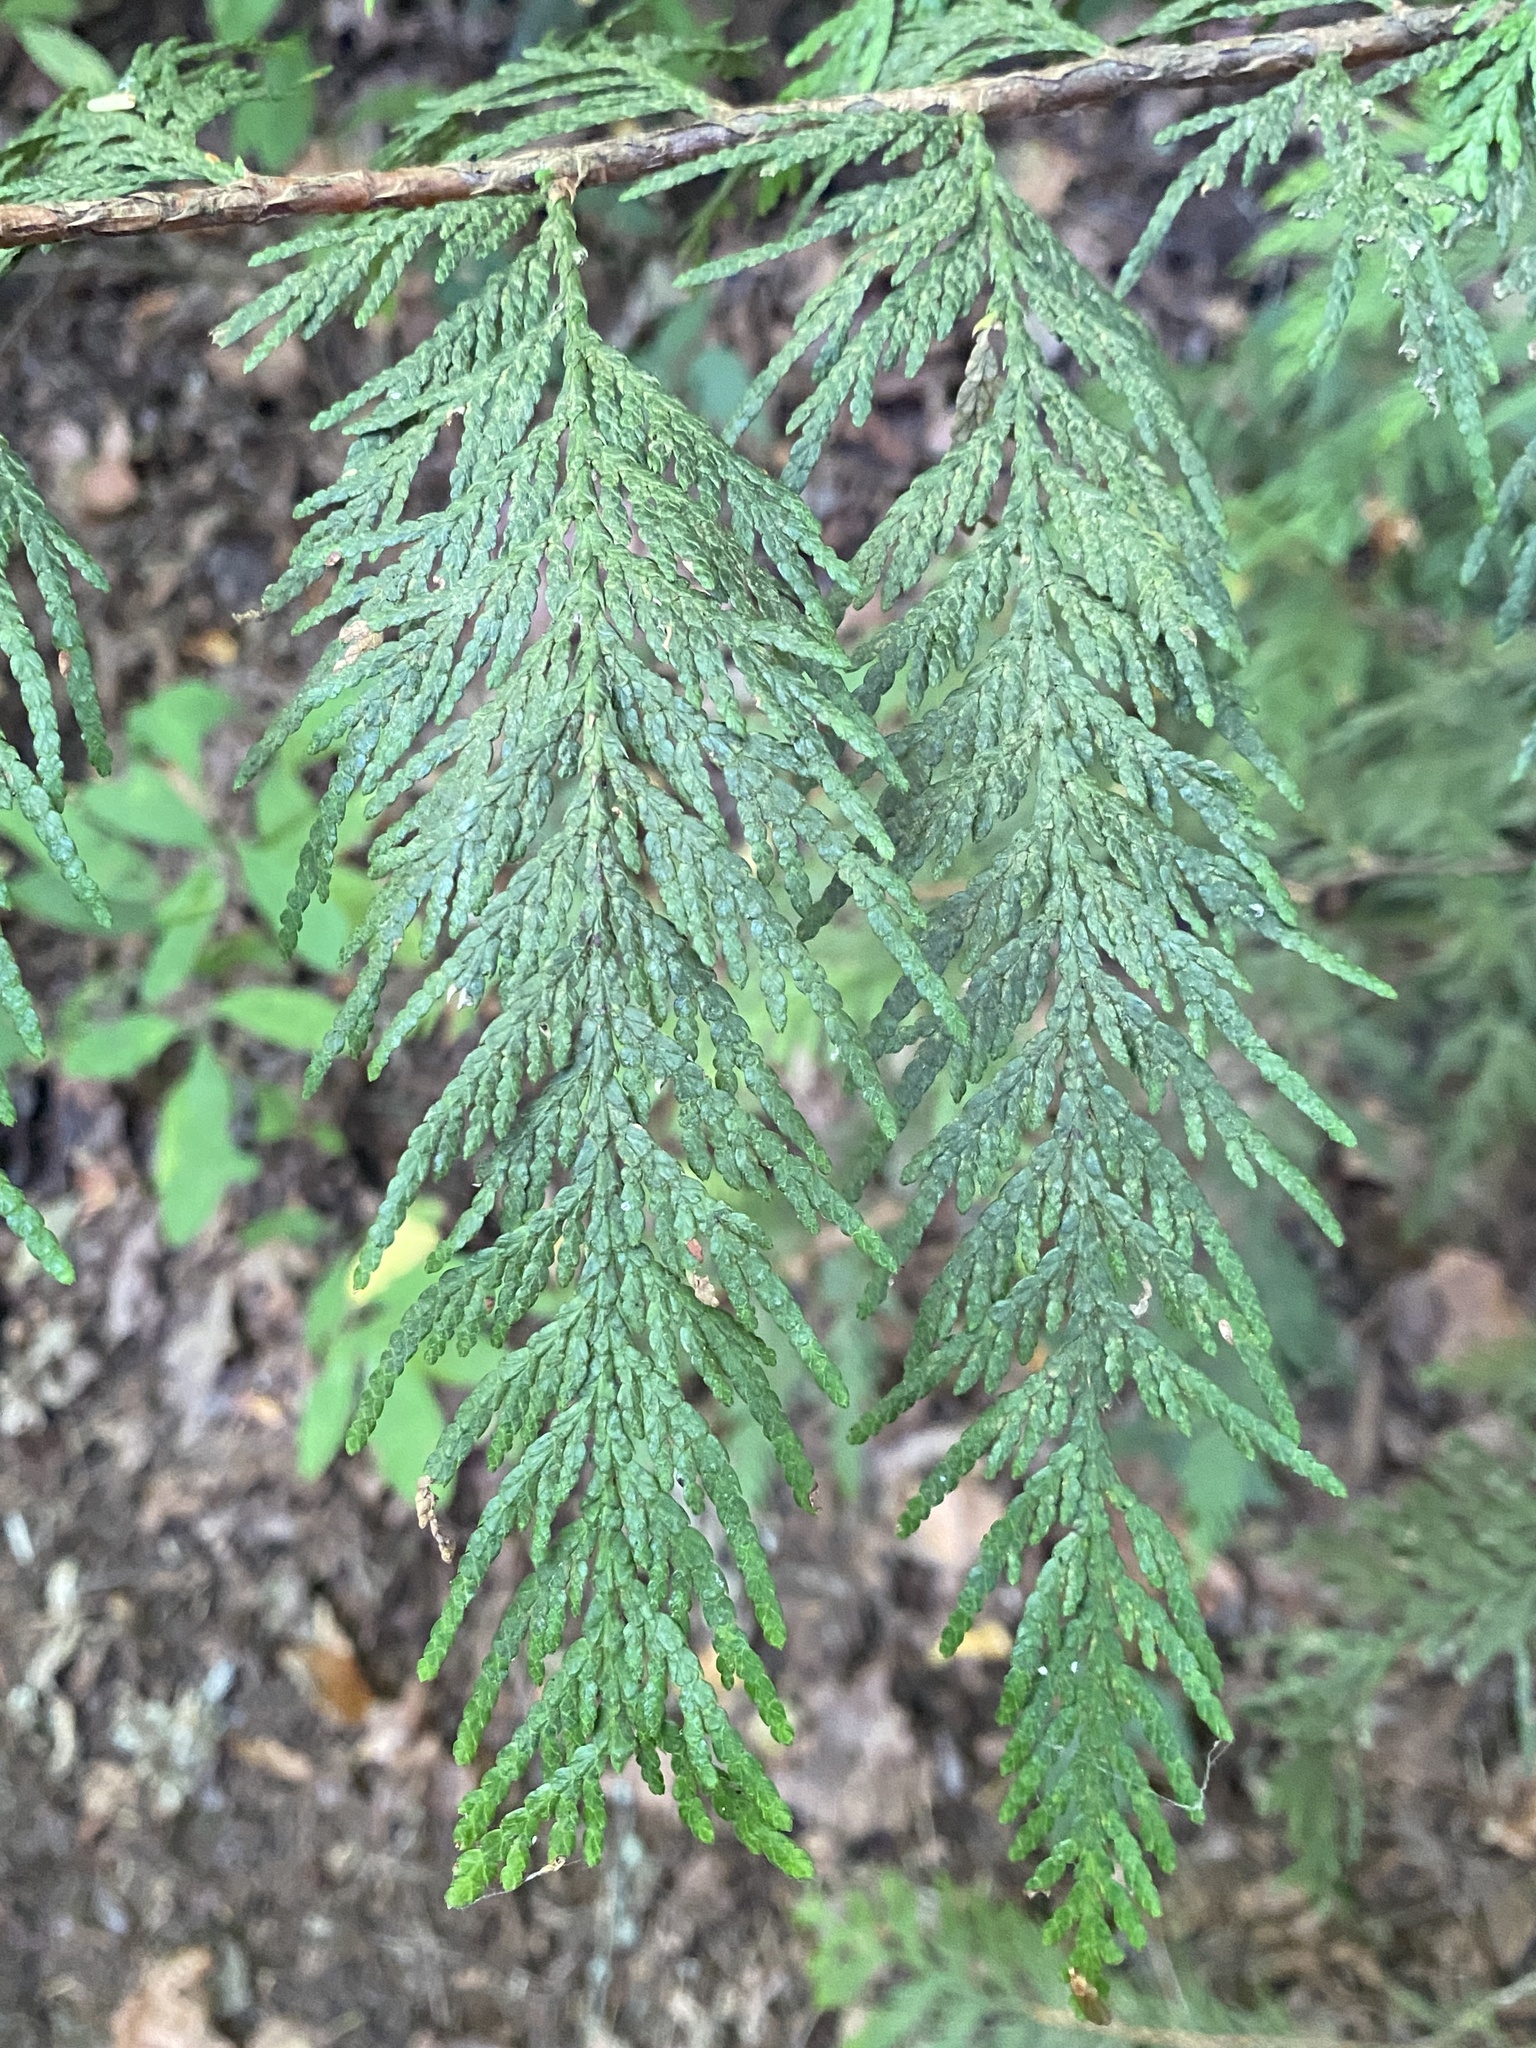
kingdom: Plantae
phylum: Tracheophyta
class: Pinopsida
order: Pinales
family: Cupressaceae
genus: Thuja
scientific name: Thuja plicata
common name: Western red-cedar
